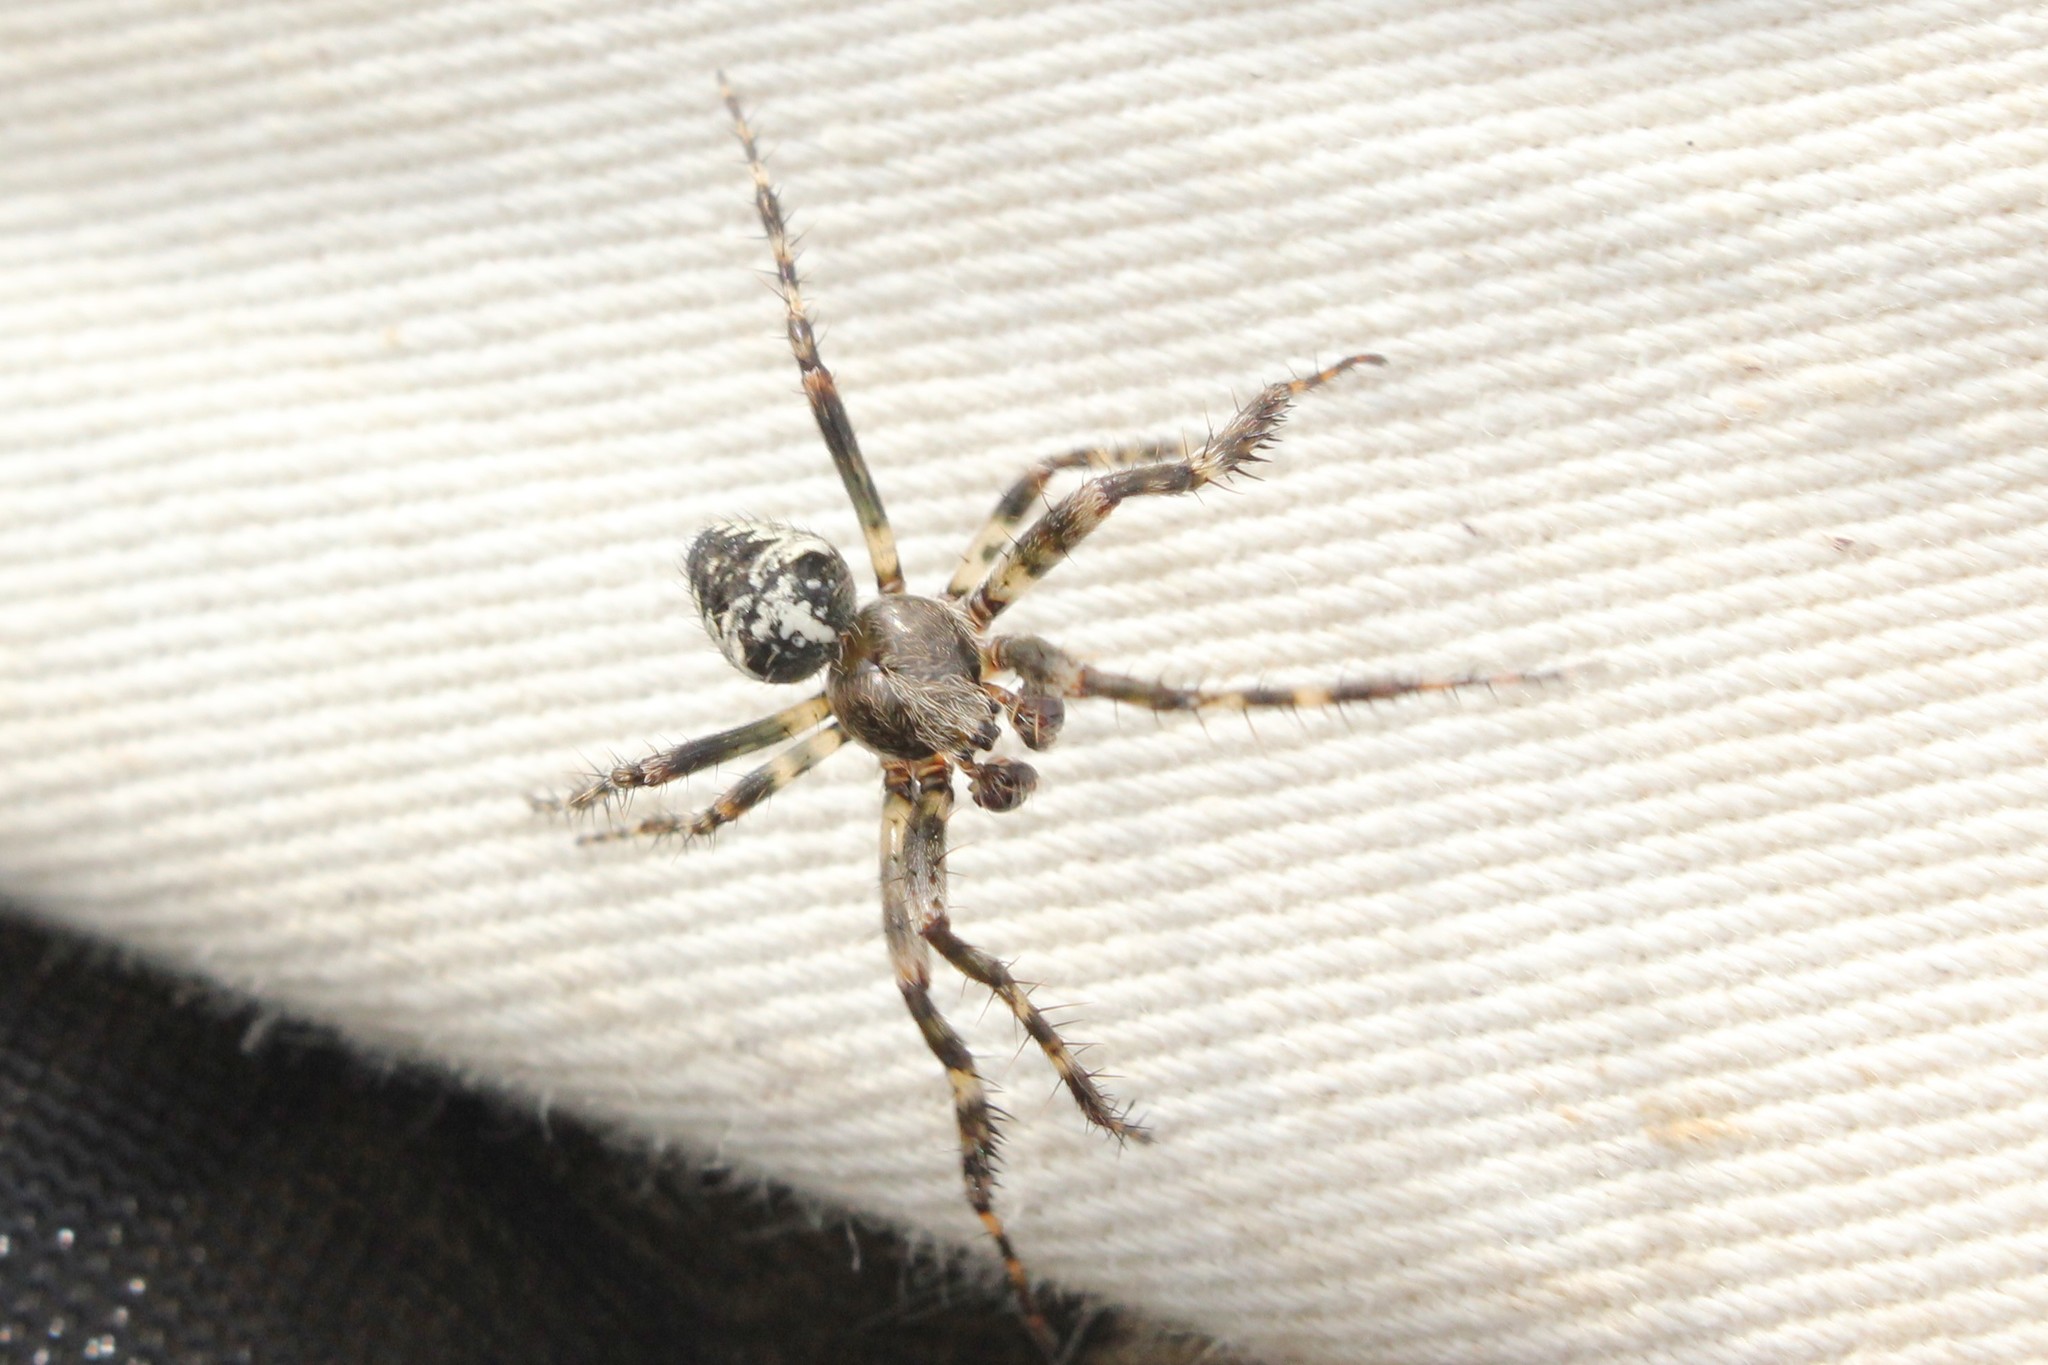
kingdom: Animalia
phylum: Arthropoda
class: Arachnida
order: Araneae
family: Araneidae
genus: Araneus
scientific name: Araneus nordmanni
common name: Nordmann's orbweaver
